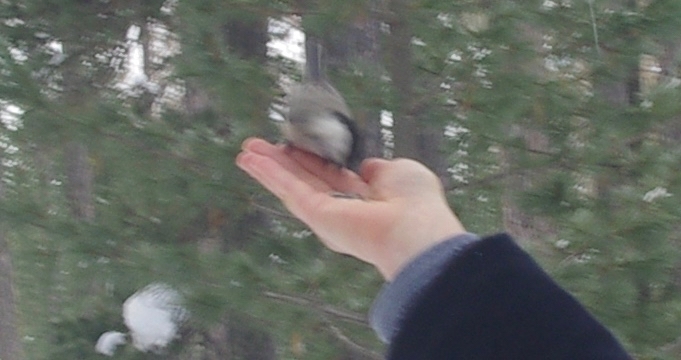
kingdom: Animalia
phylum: Chordata
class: Aves
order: Passeriformes
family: Paridae
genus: Poecile
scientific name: Poecile montanus
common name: Willow tit
